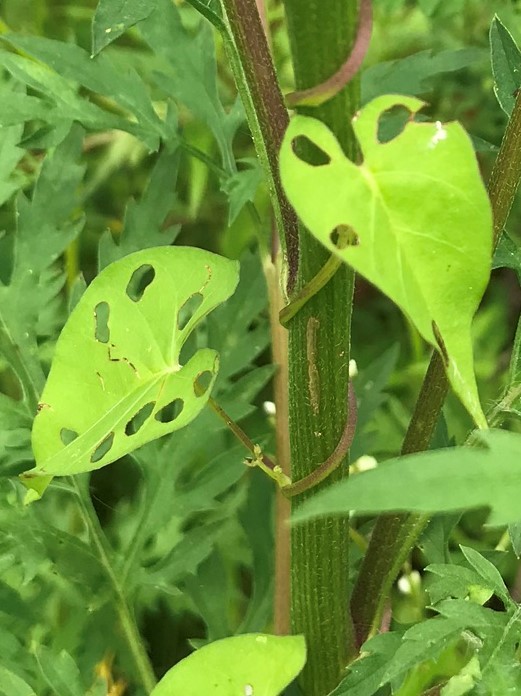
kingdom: Plantae
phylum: Tracheophyta
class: Magnoliopsida
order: Solanales
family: Convolvulaceae
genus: Ipomoea
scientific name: Ipomoea coccinea
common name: Red morning-glory
